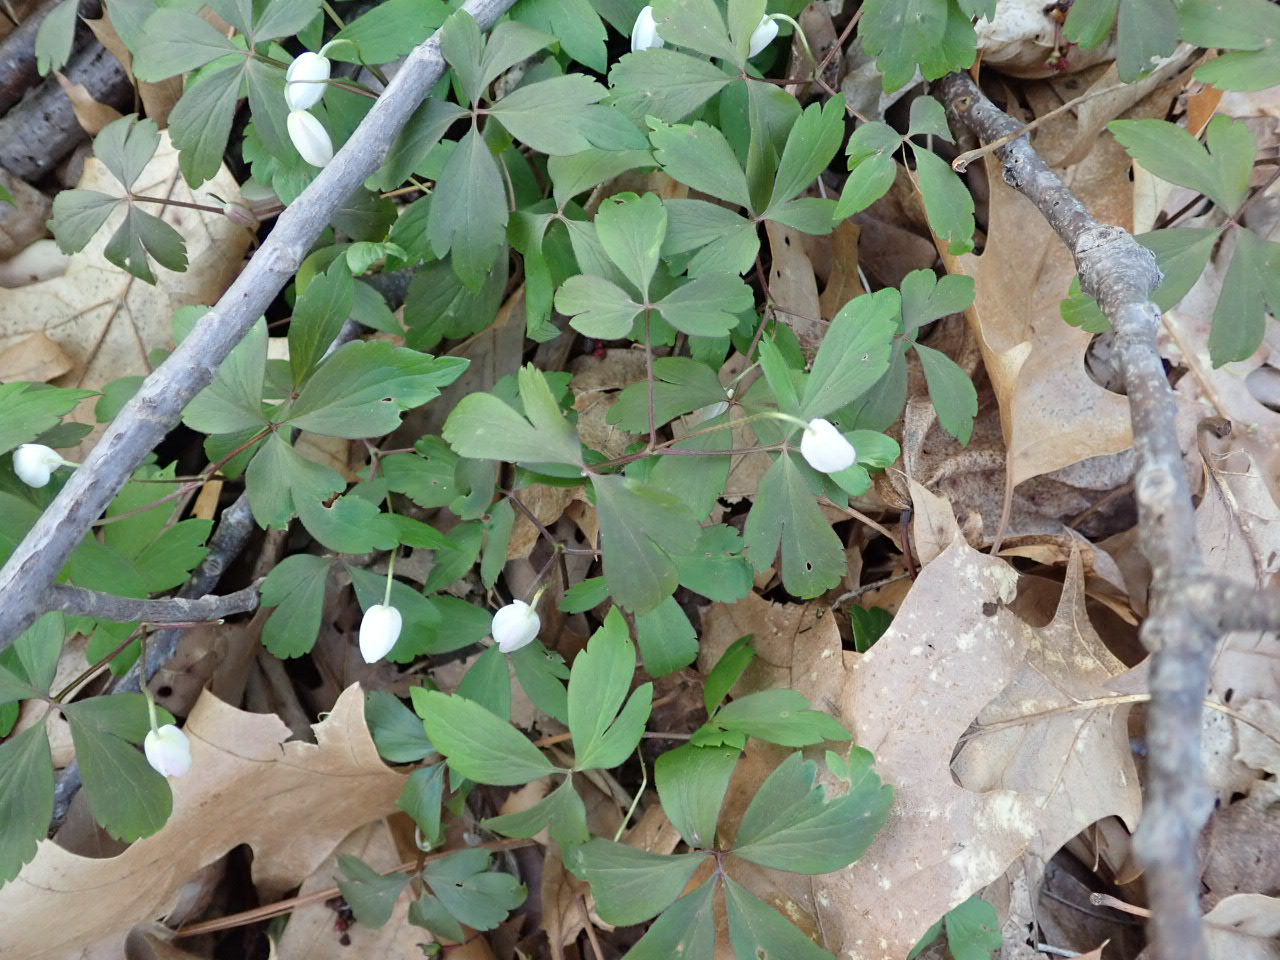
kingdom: Plantae
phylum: Tracheophyta
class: Magnoliopsida
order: Ranunculales
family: Ranunculaceae
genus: Anemone
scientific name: Anemone quinquefolia
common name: Wood anemone
